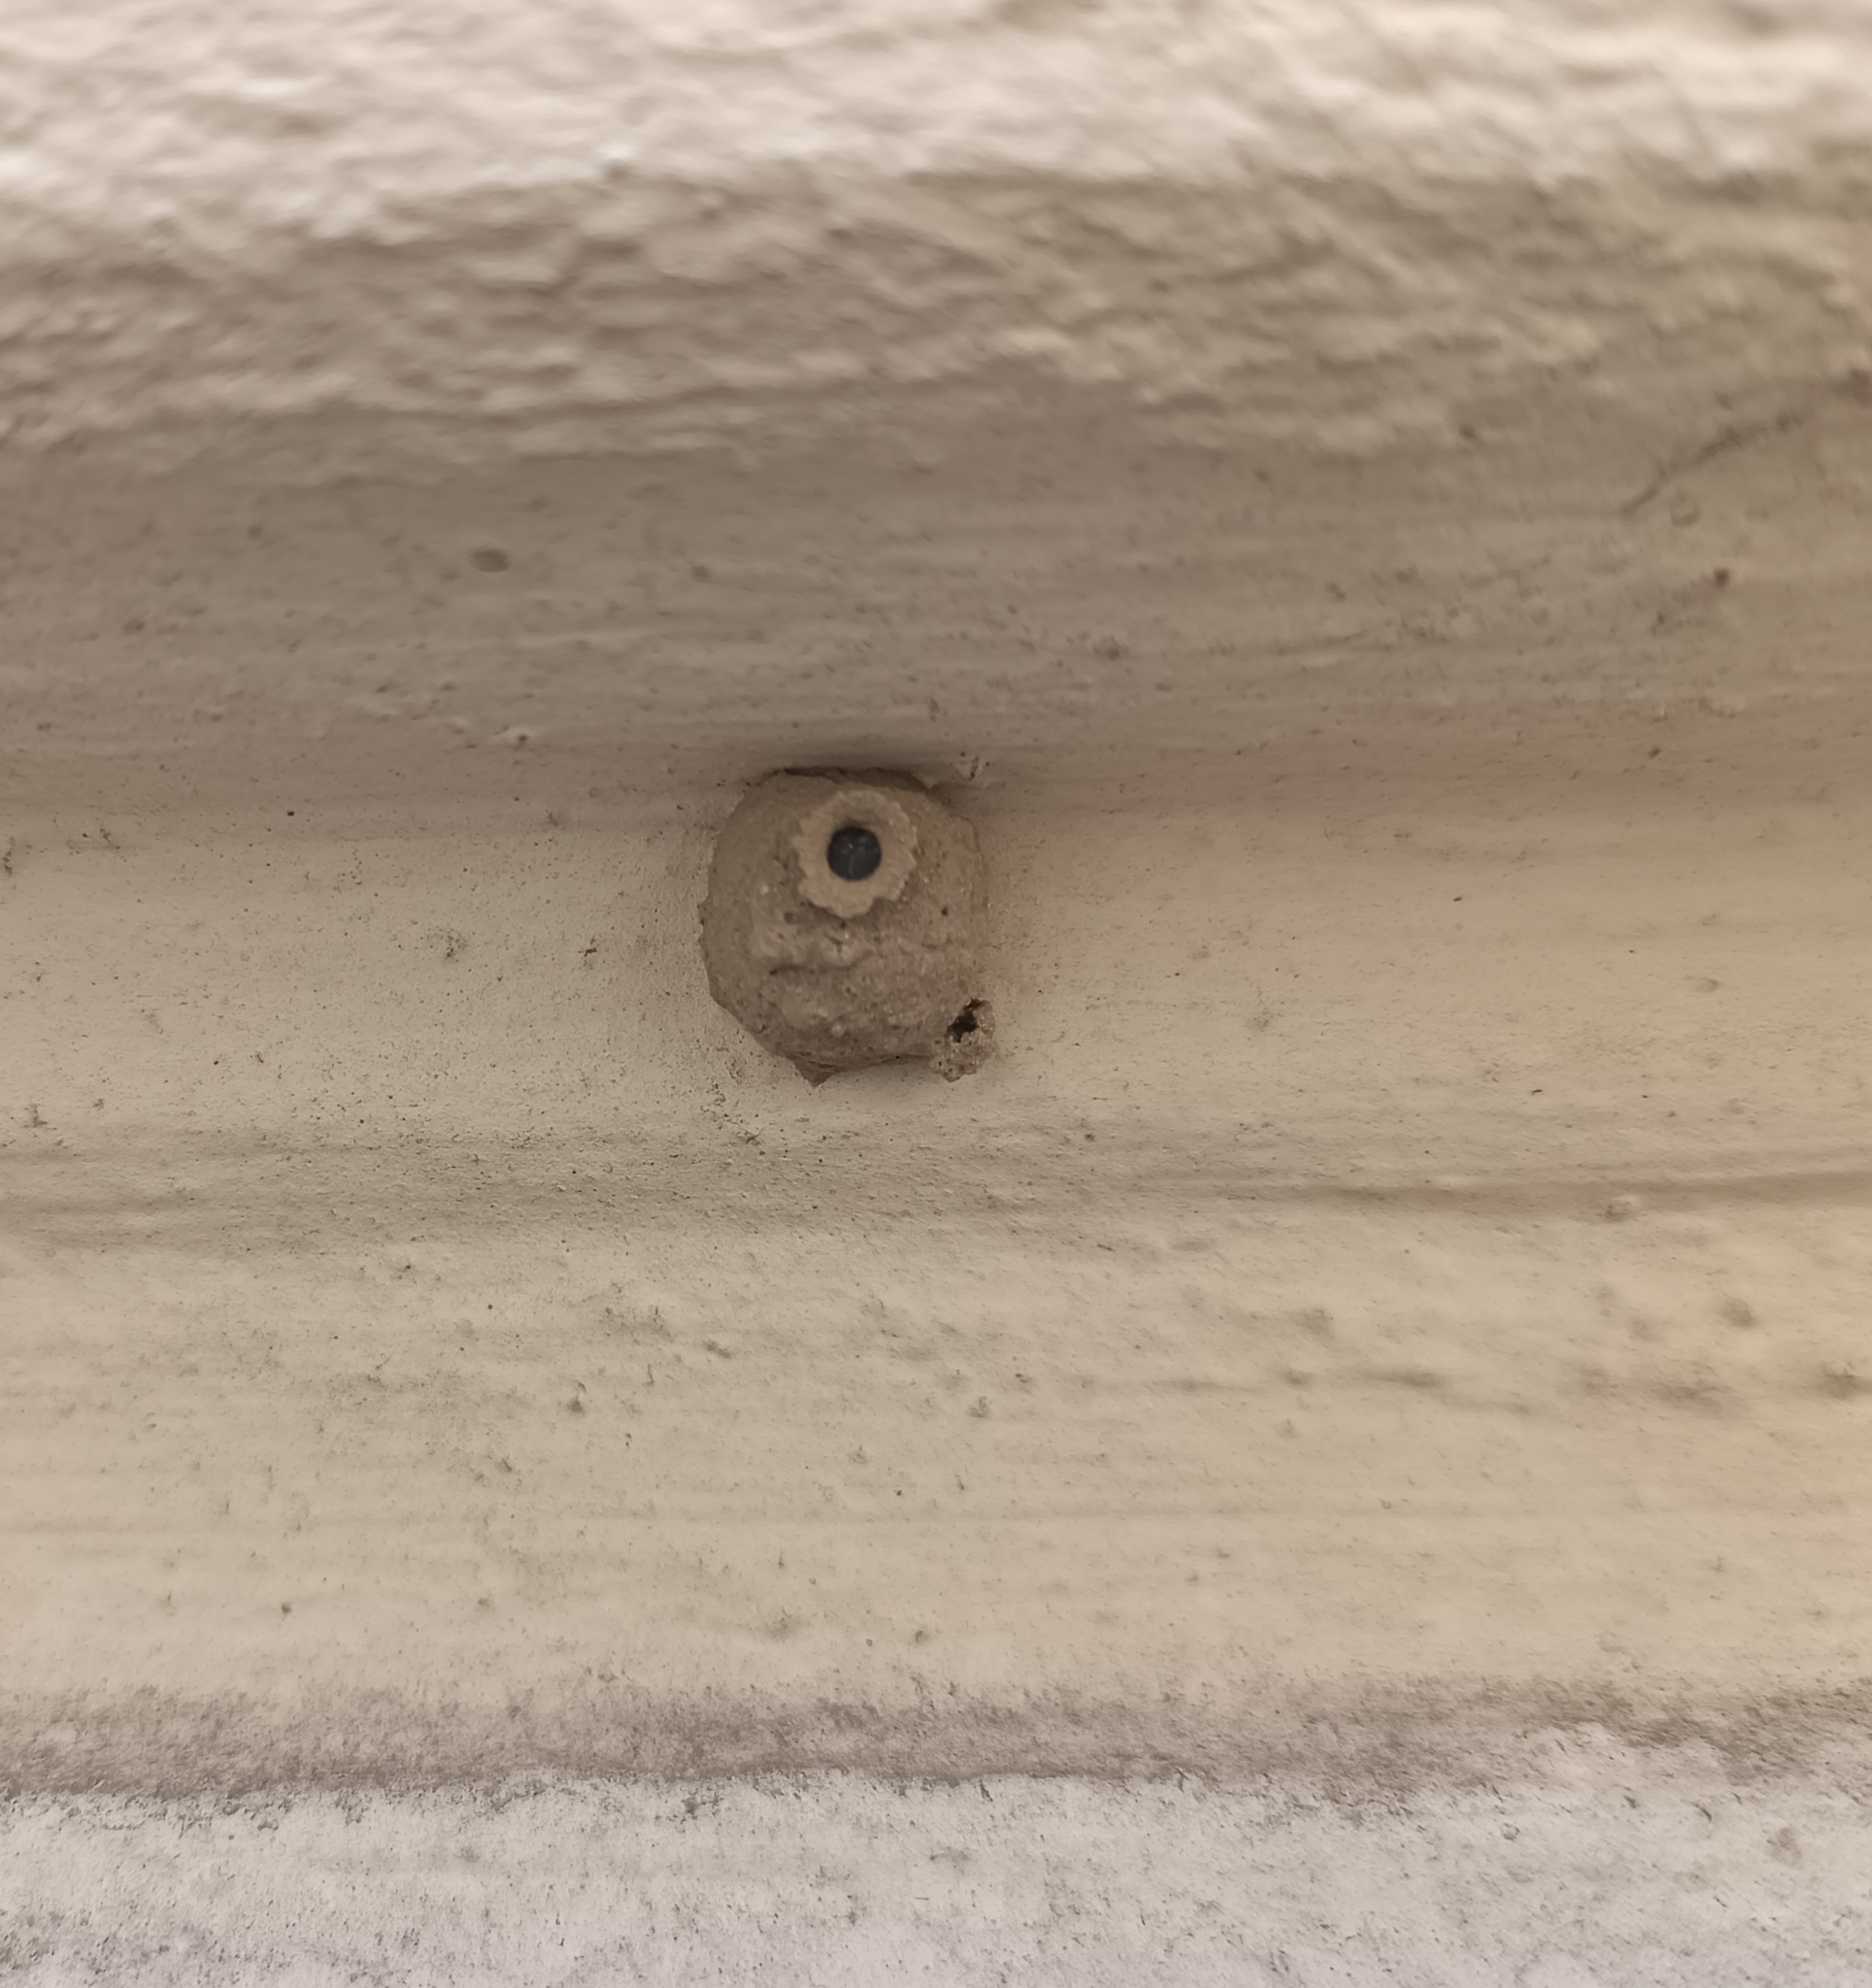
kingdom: Animalia
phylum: Arthropoda
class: Insecta
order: Hymenoptera
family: Vespidae
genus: Eumenes
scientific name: Eumenes
